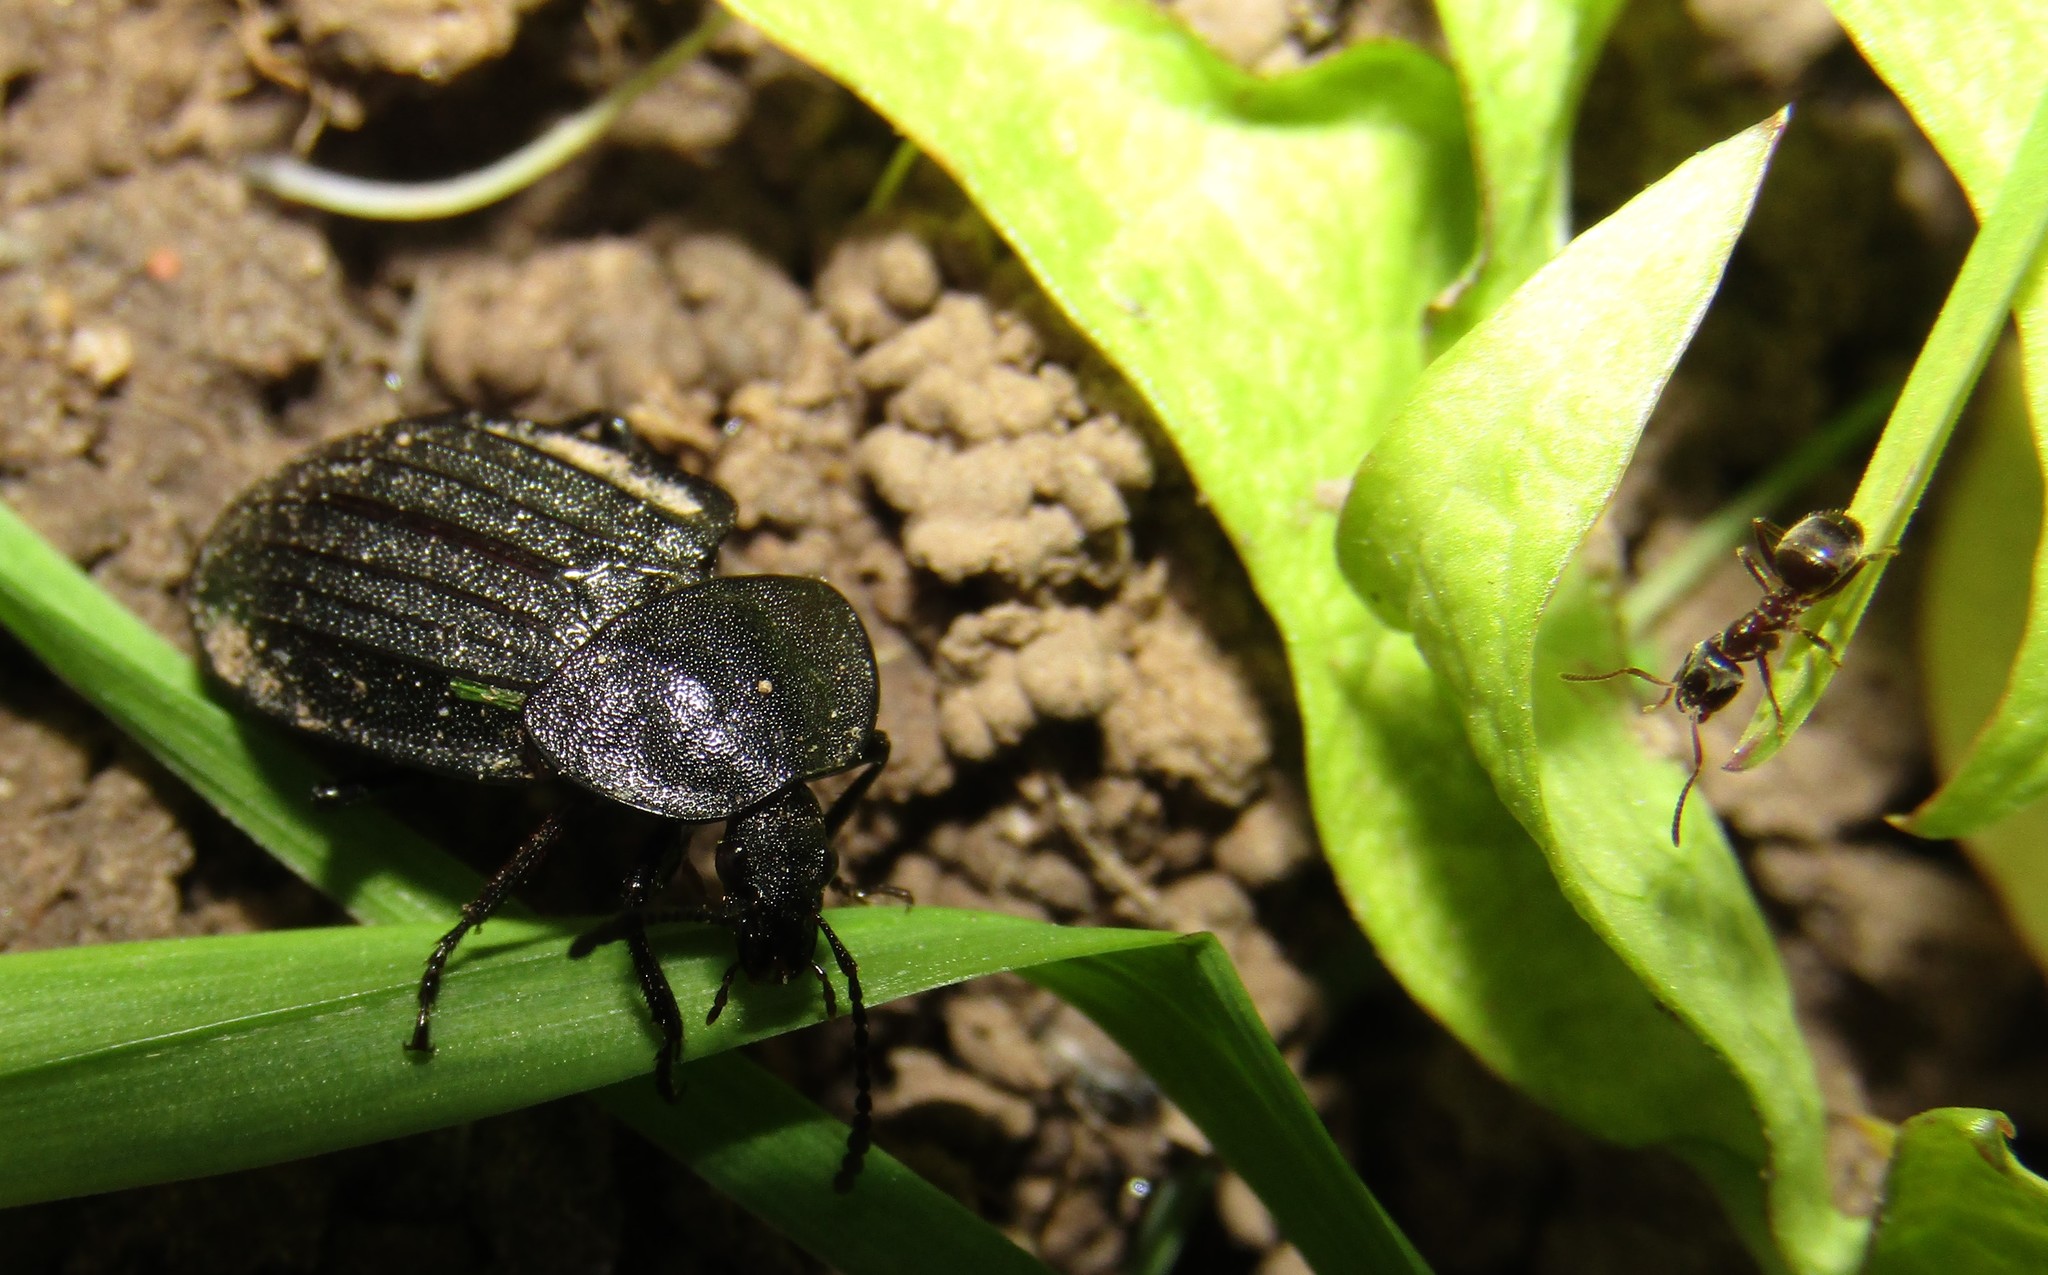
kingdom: Animalia
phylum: Arthropoda
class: Insecta
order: Coleoptera
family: Staphylinidae
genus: Silpha
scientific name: Silpha atrata
